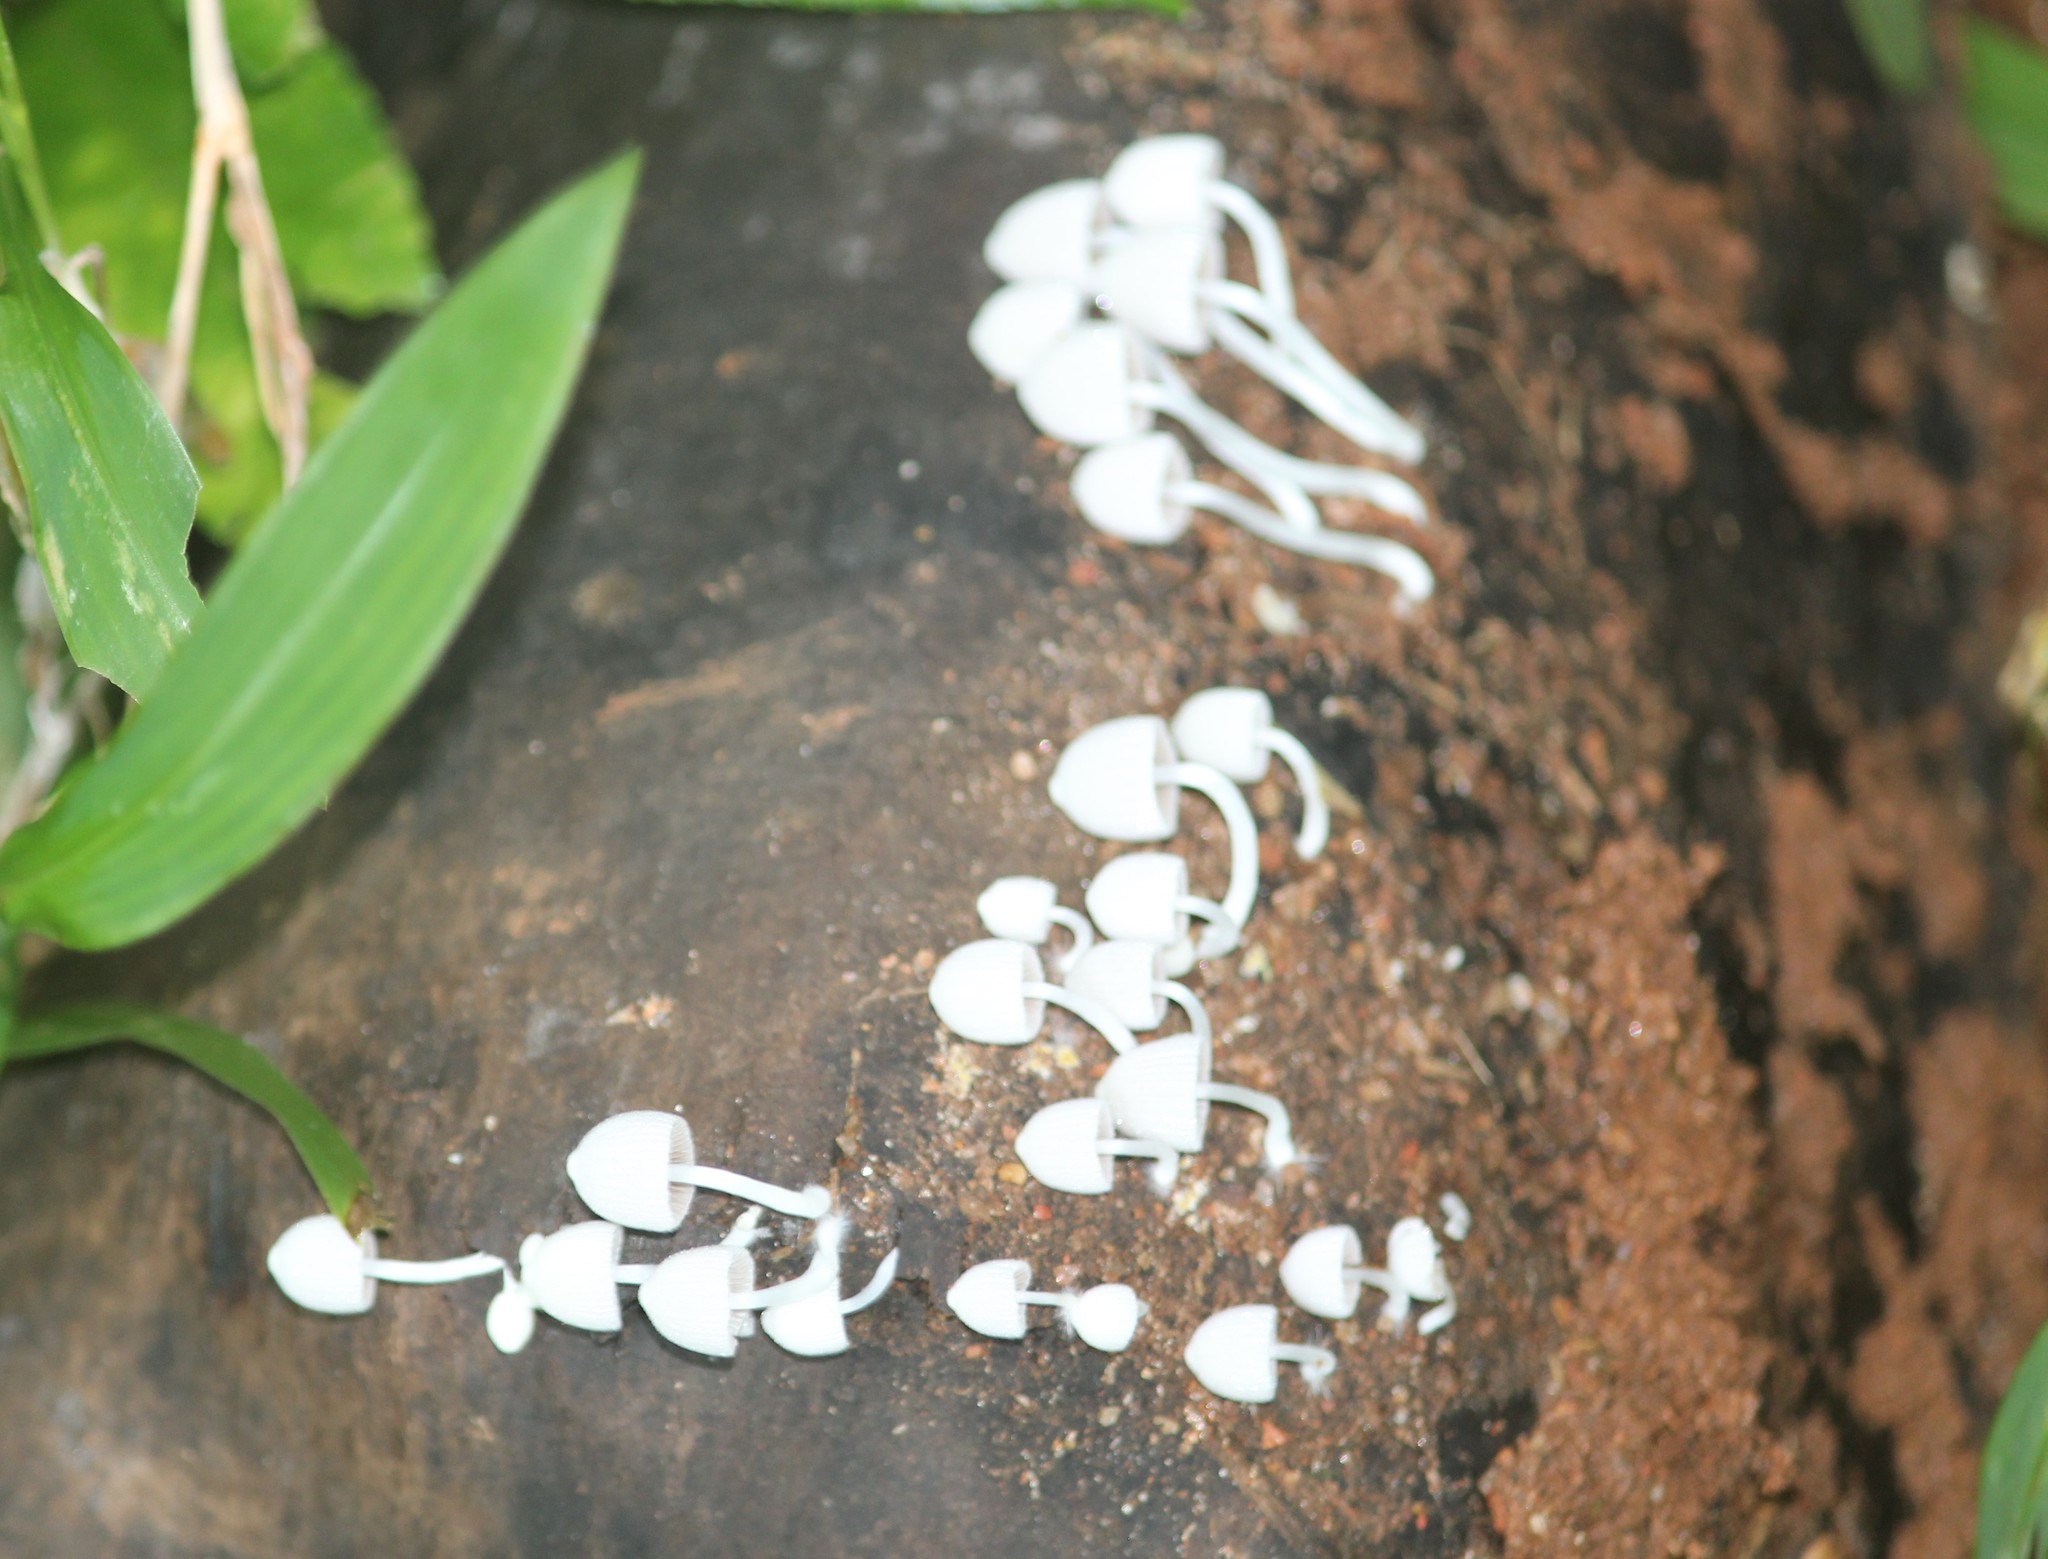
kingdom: Fungi
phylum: Basidiomycota
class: Agaricomycetes
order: Agaricales
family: Psathyrellaceae
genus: Coprinellus
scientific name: Coprinellus disseminatus
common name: Fairies' bonnets
